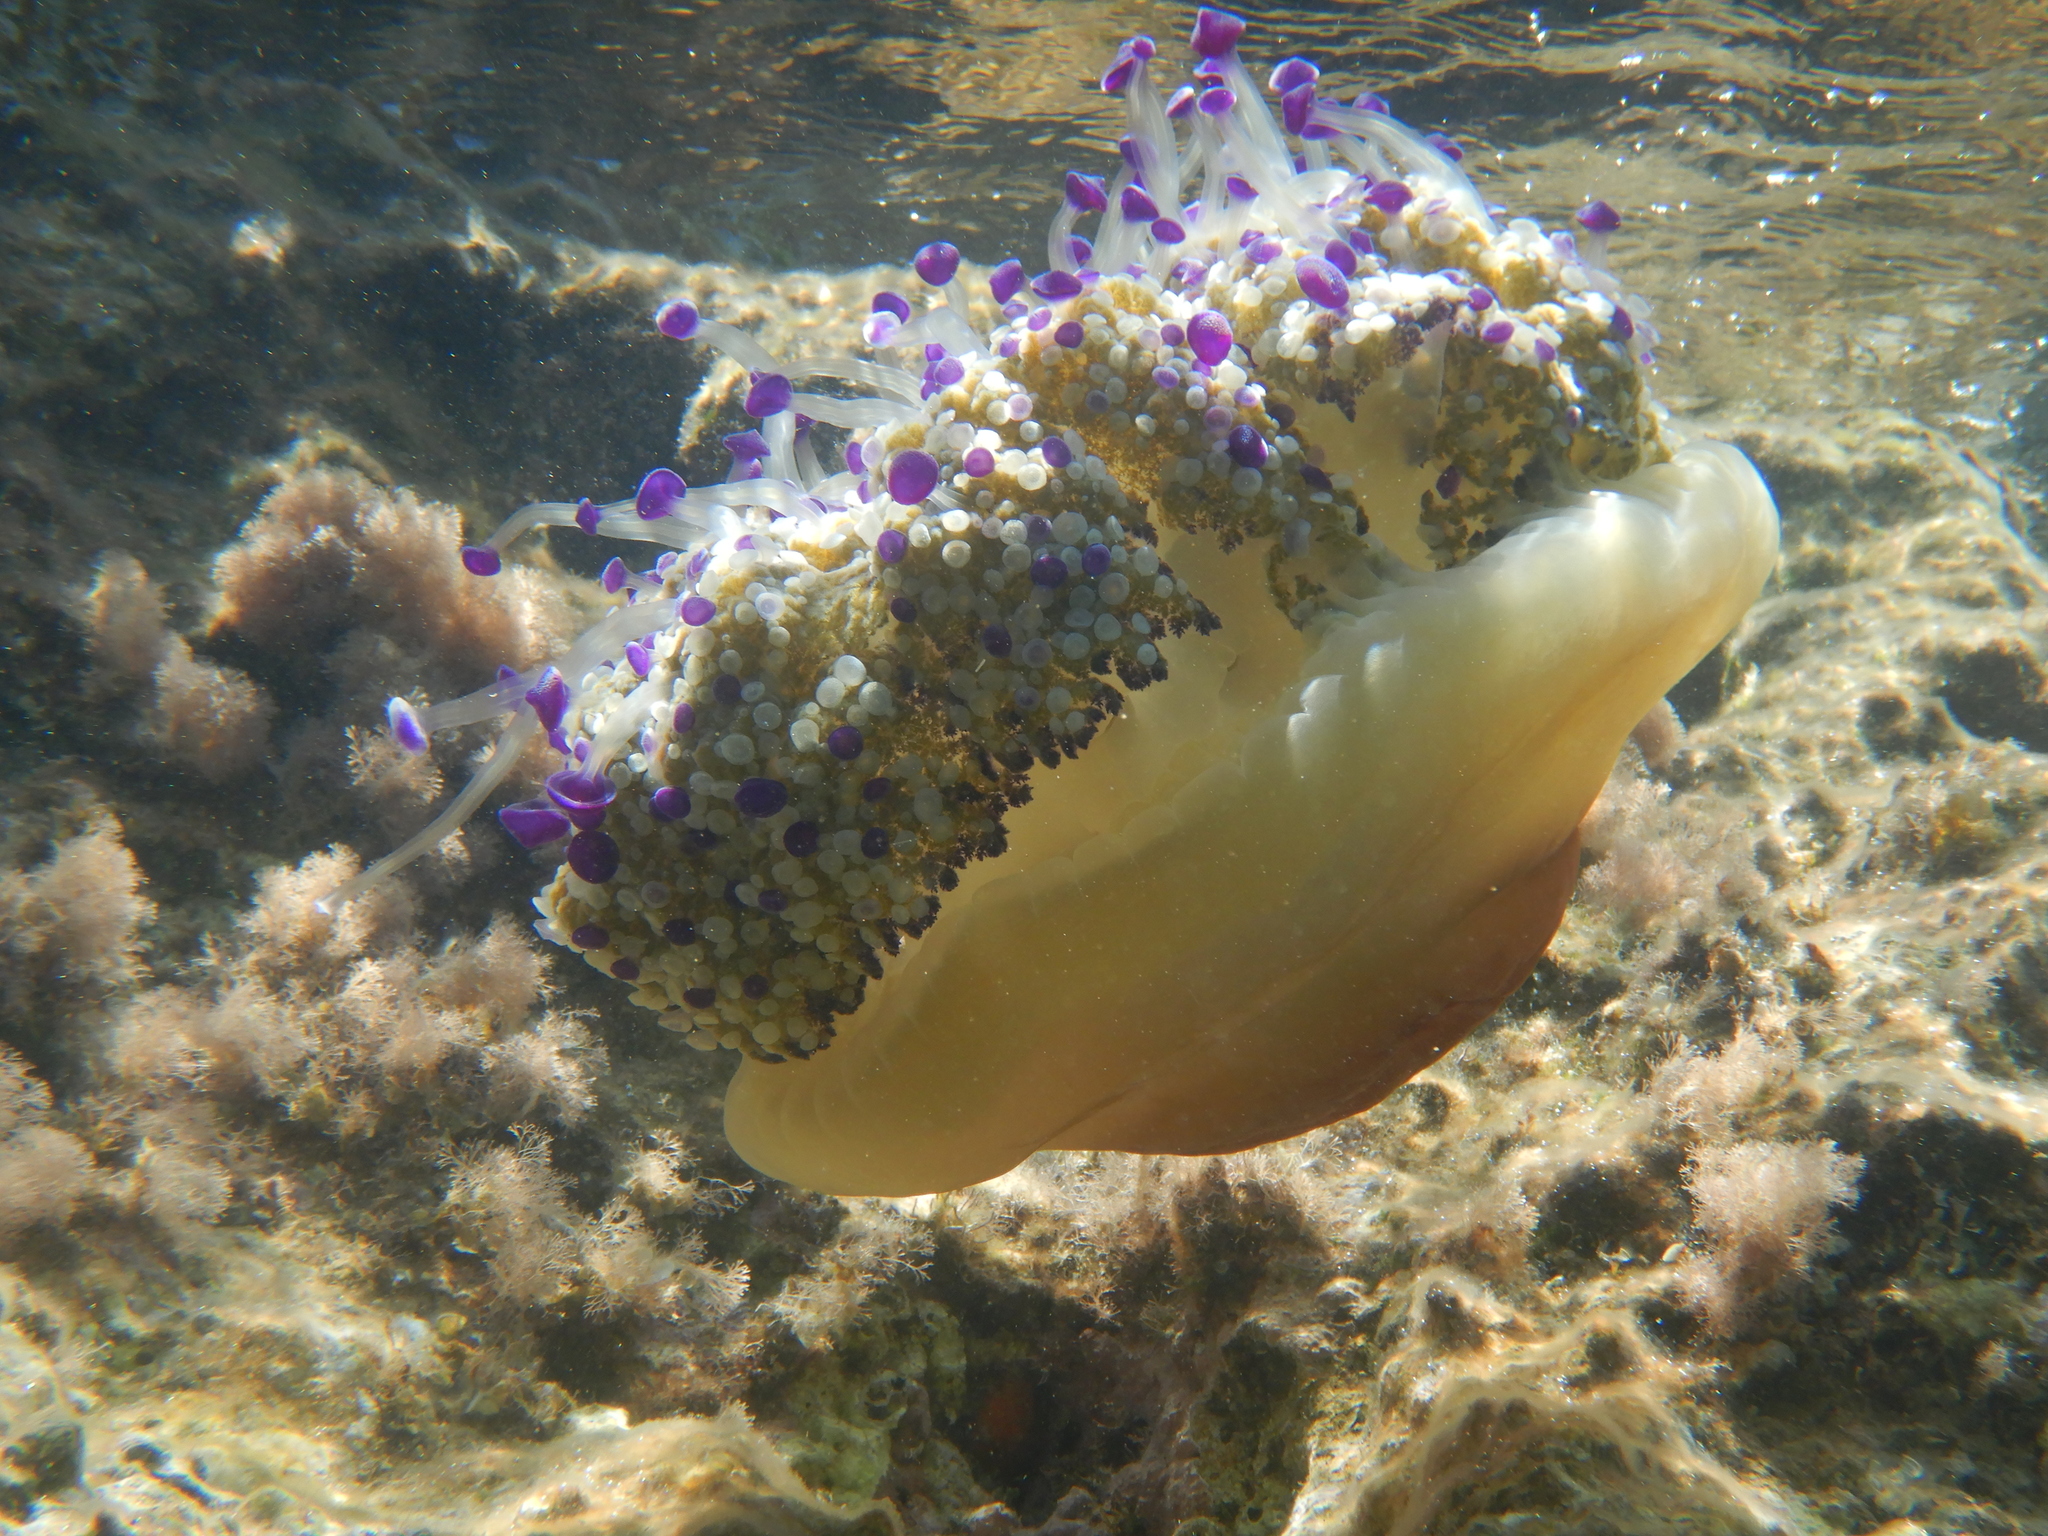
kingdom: Animalia
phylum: Cnidaria
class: Scyphozoa
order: Rhizostomeae
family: Cepheidae
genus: Cotylorhiza
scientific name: Cotylorhiza tuberculata
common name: Mediterranean jelly
